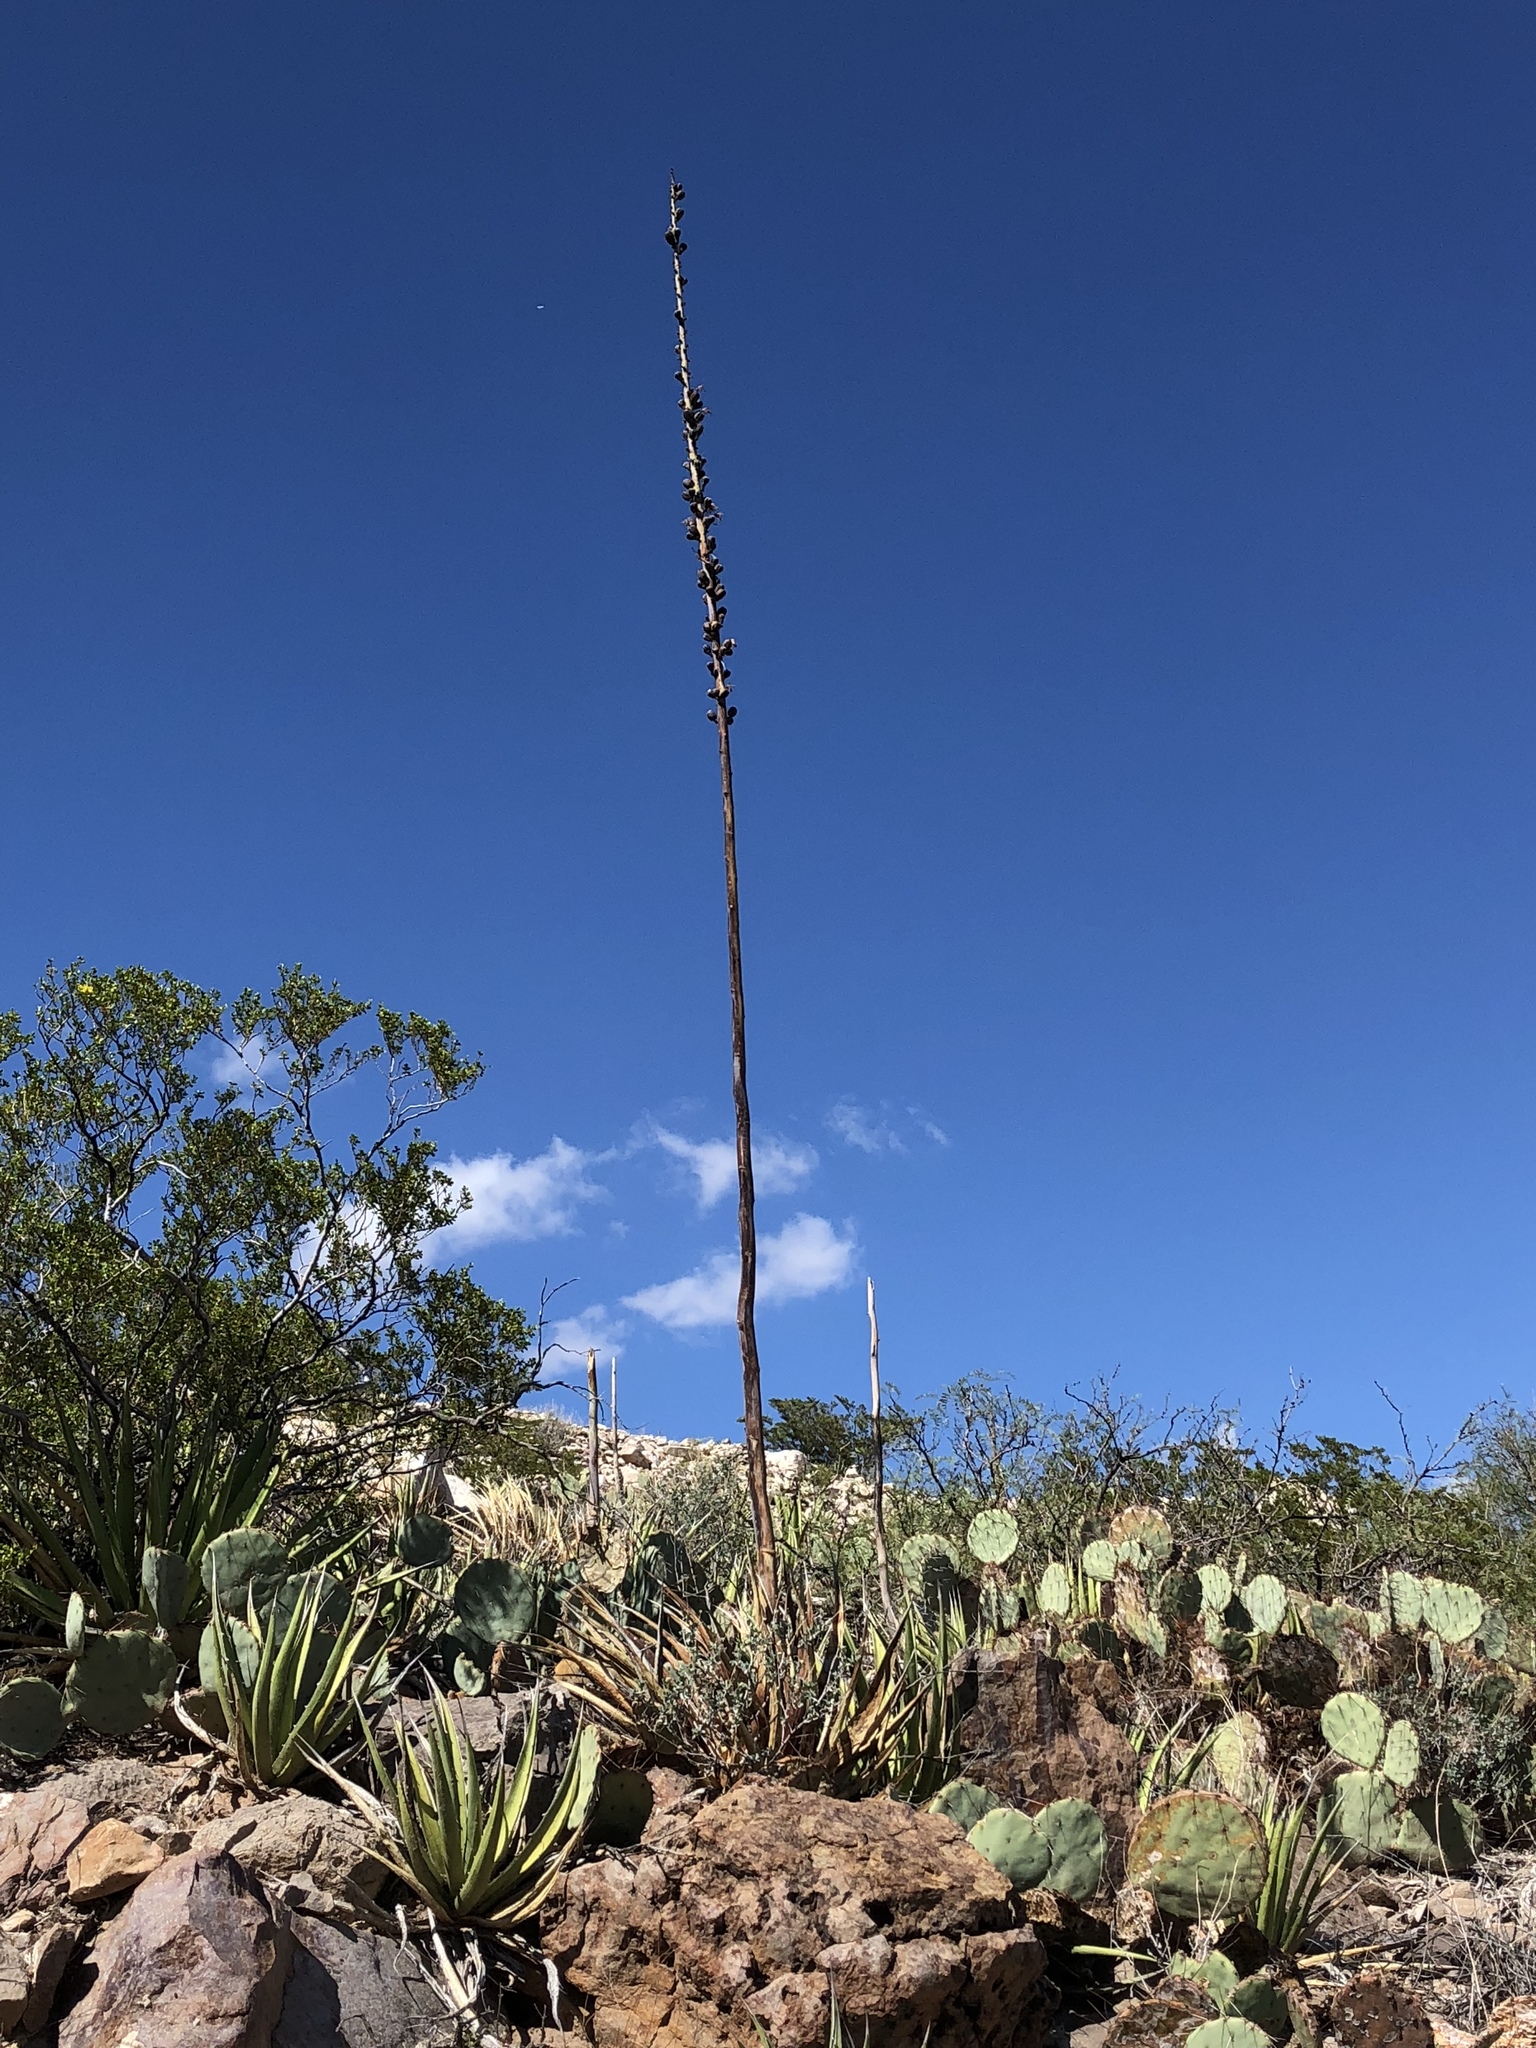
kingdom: Plantae
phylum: Tracheophyta
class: Liliopsida
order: Asparagales
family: Asparagaceae
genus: Agave
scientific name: Agave lechuguilla
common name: Lecheguilla agave
